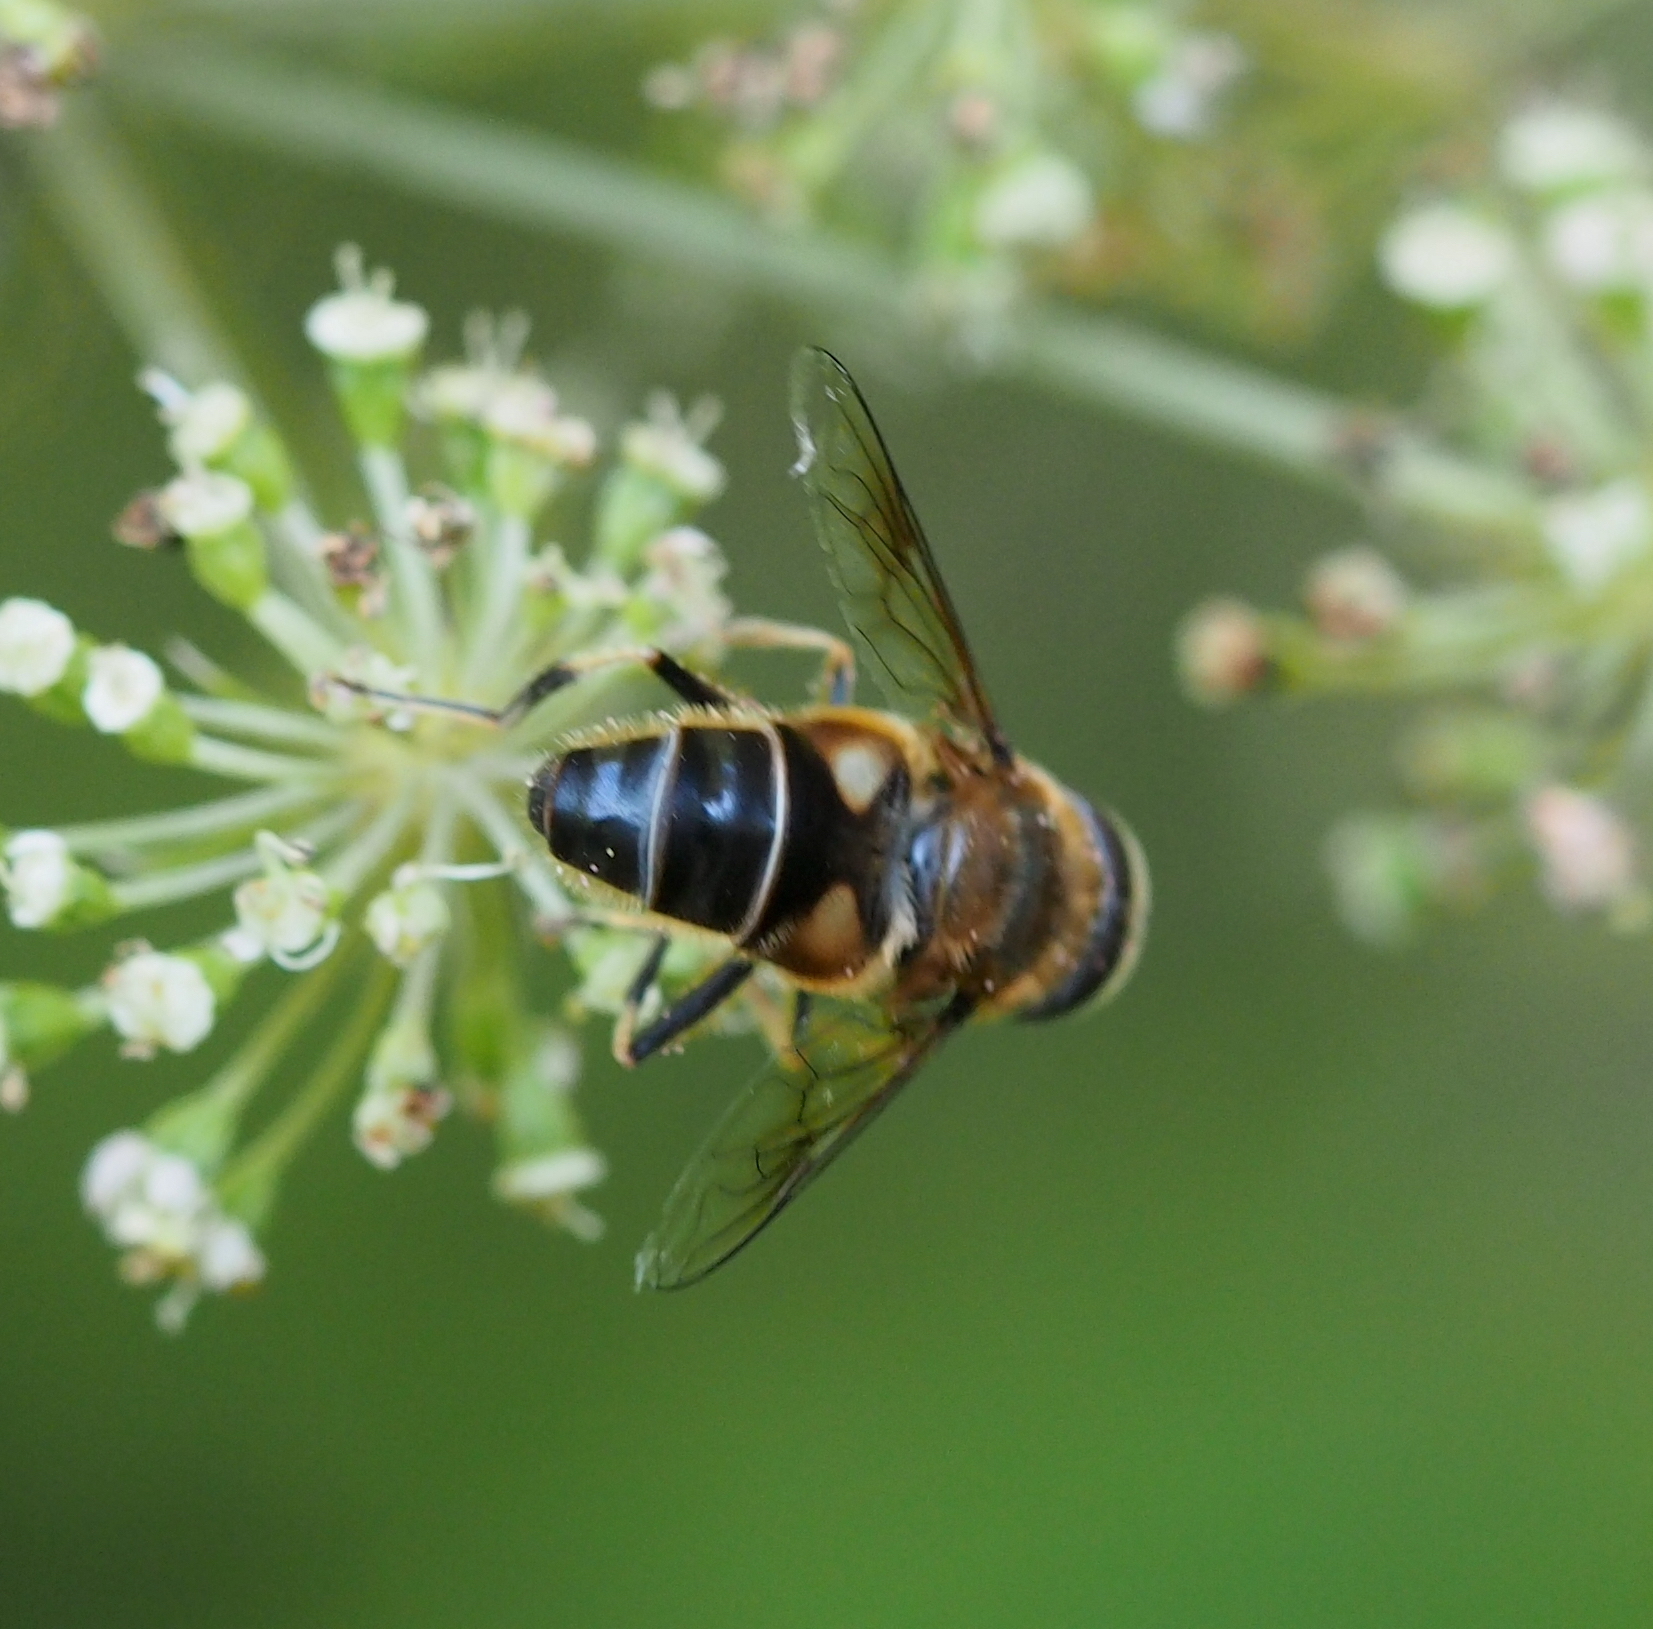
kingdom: Animalia
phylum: Arthropoda
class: Insecta
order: Diptera
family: Syrphidae
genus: Eristalis
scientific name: Eristalis pertinax
